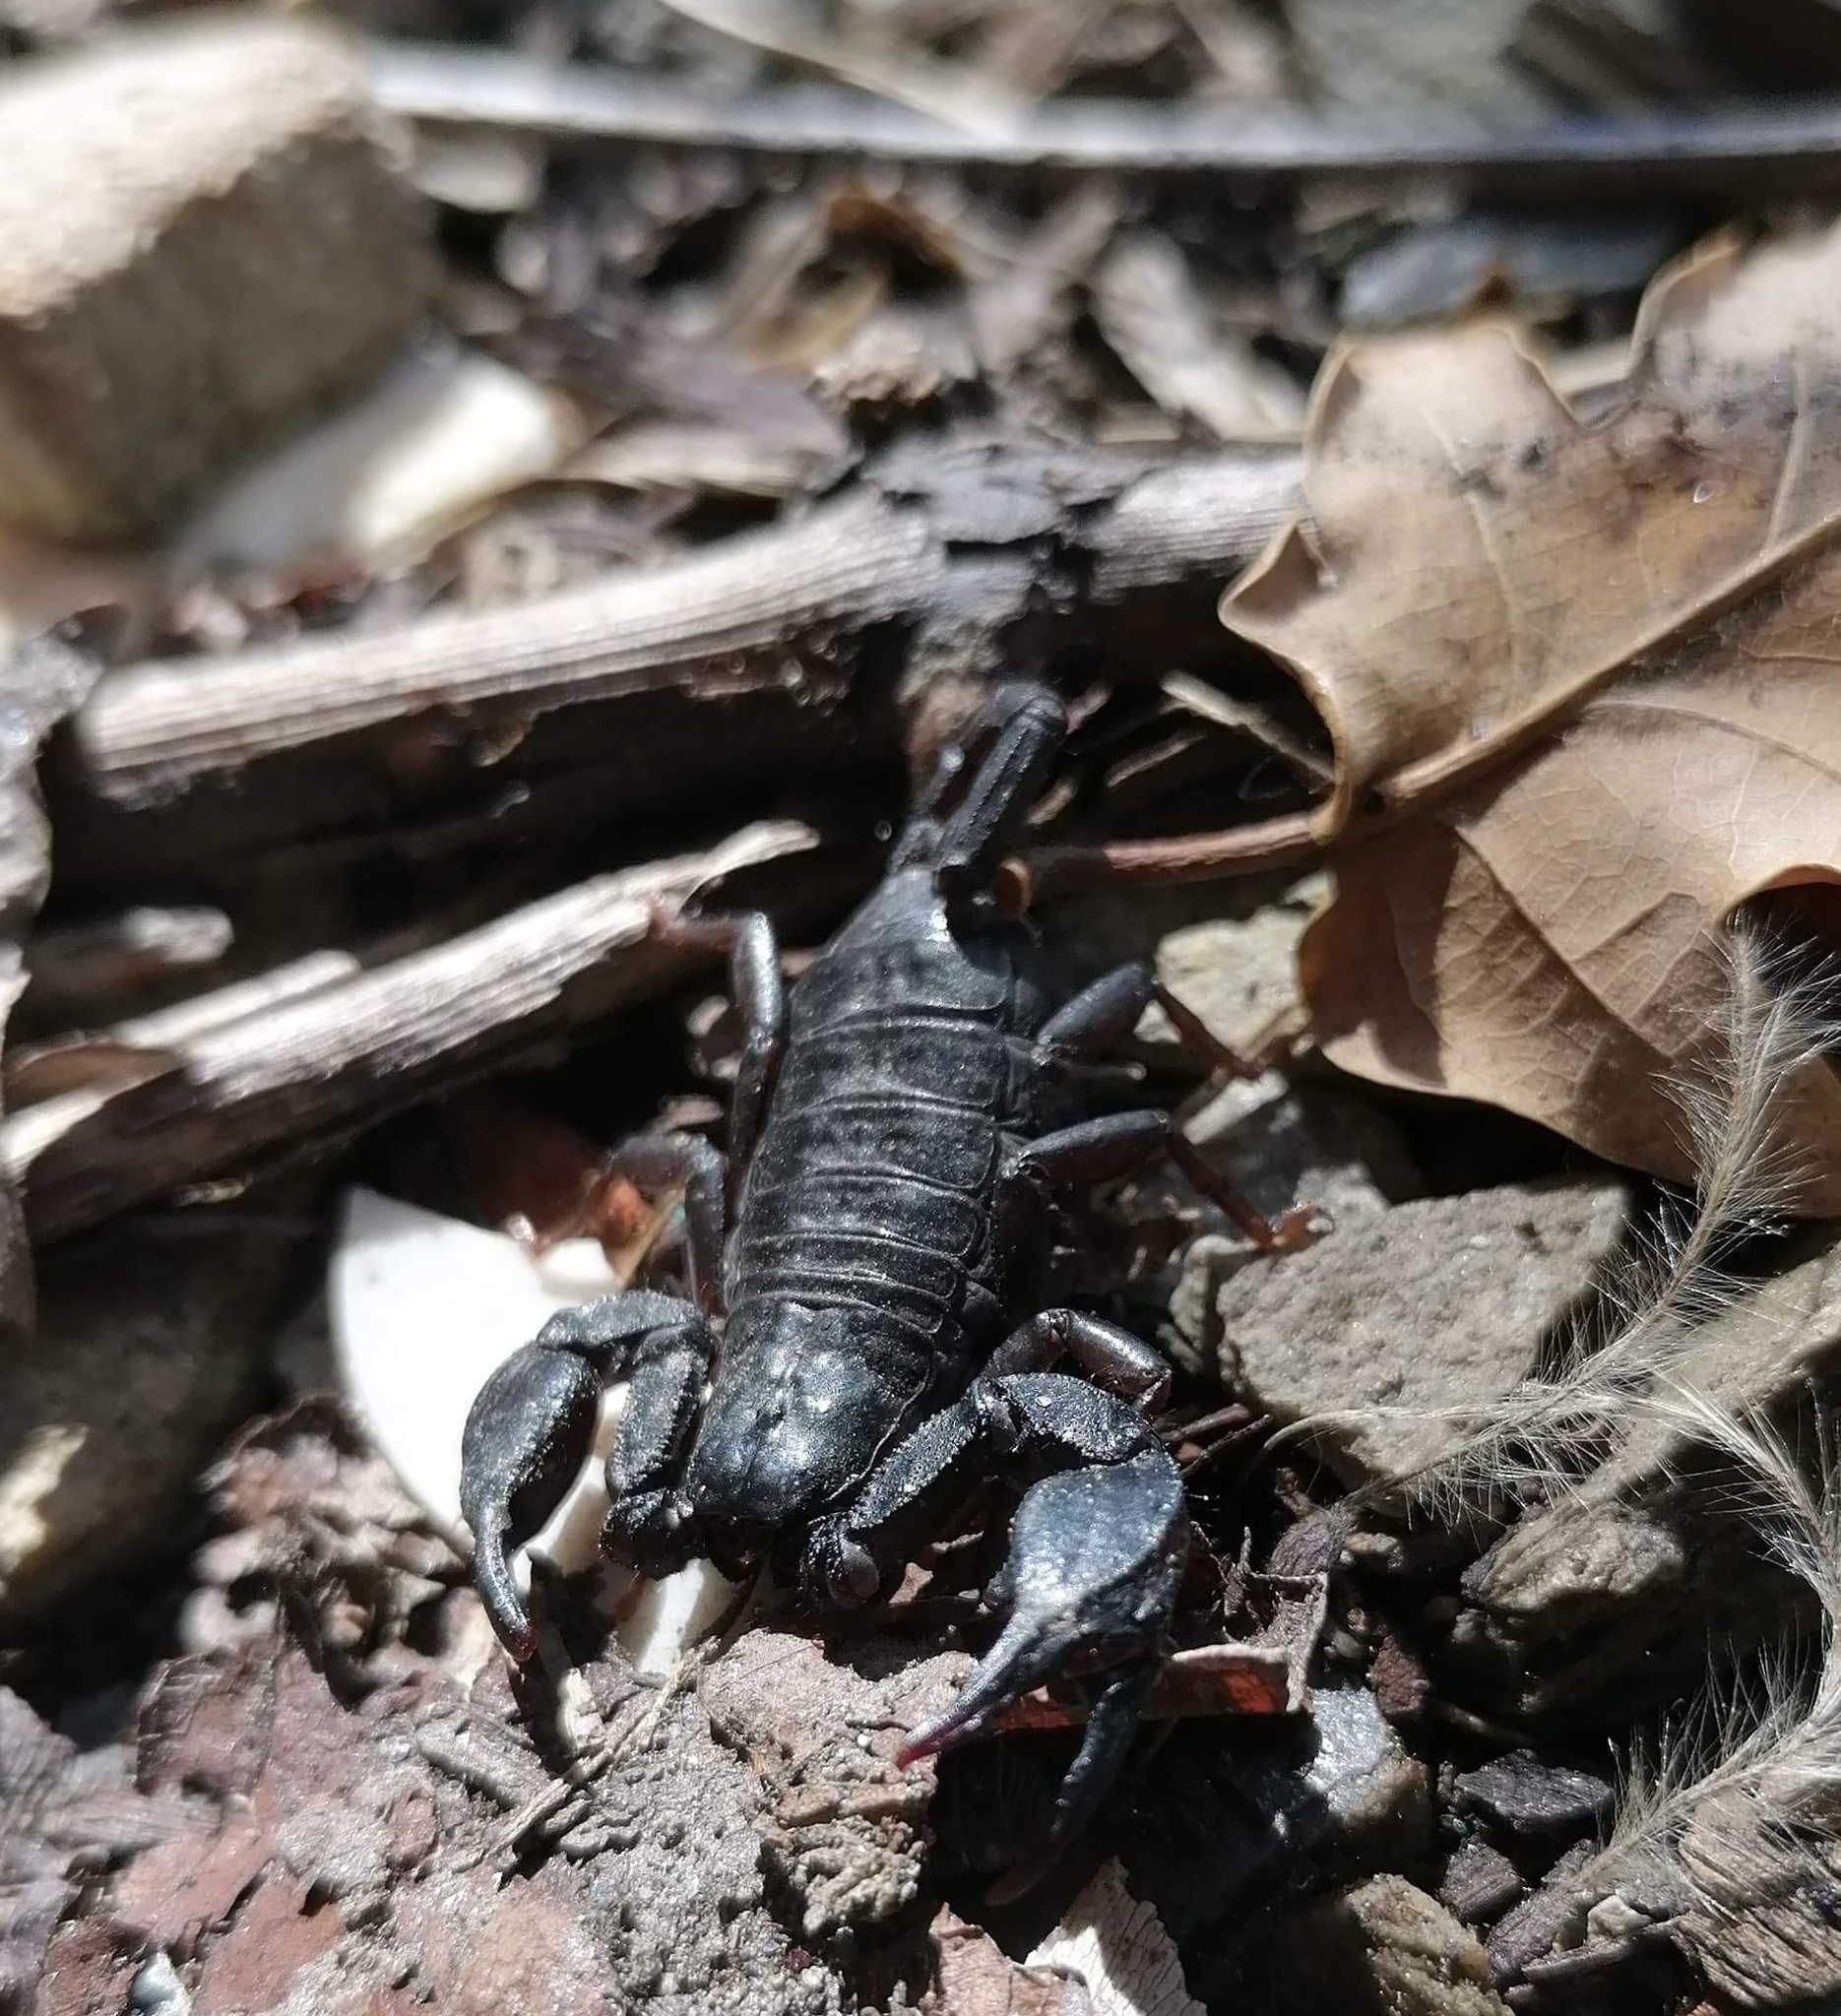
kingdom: Animalia
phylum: Arthropoda
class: Arachnida
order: Scorpiones
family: Euscorpiidae
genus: Euscorpius
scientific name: Euscorpius italicus
